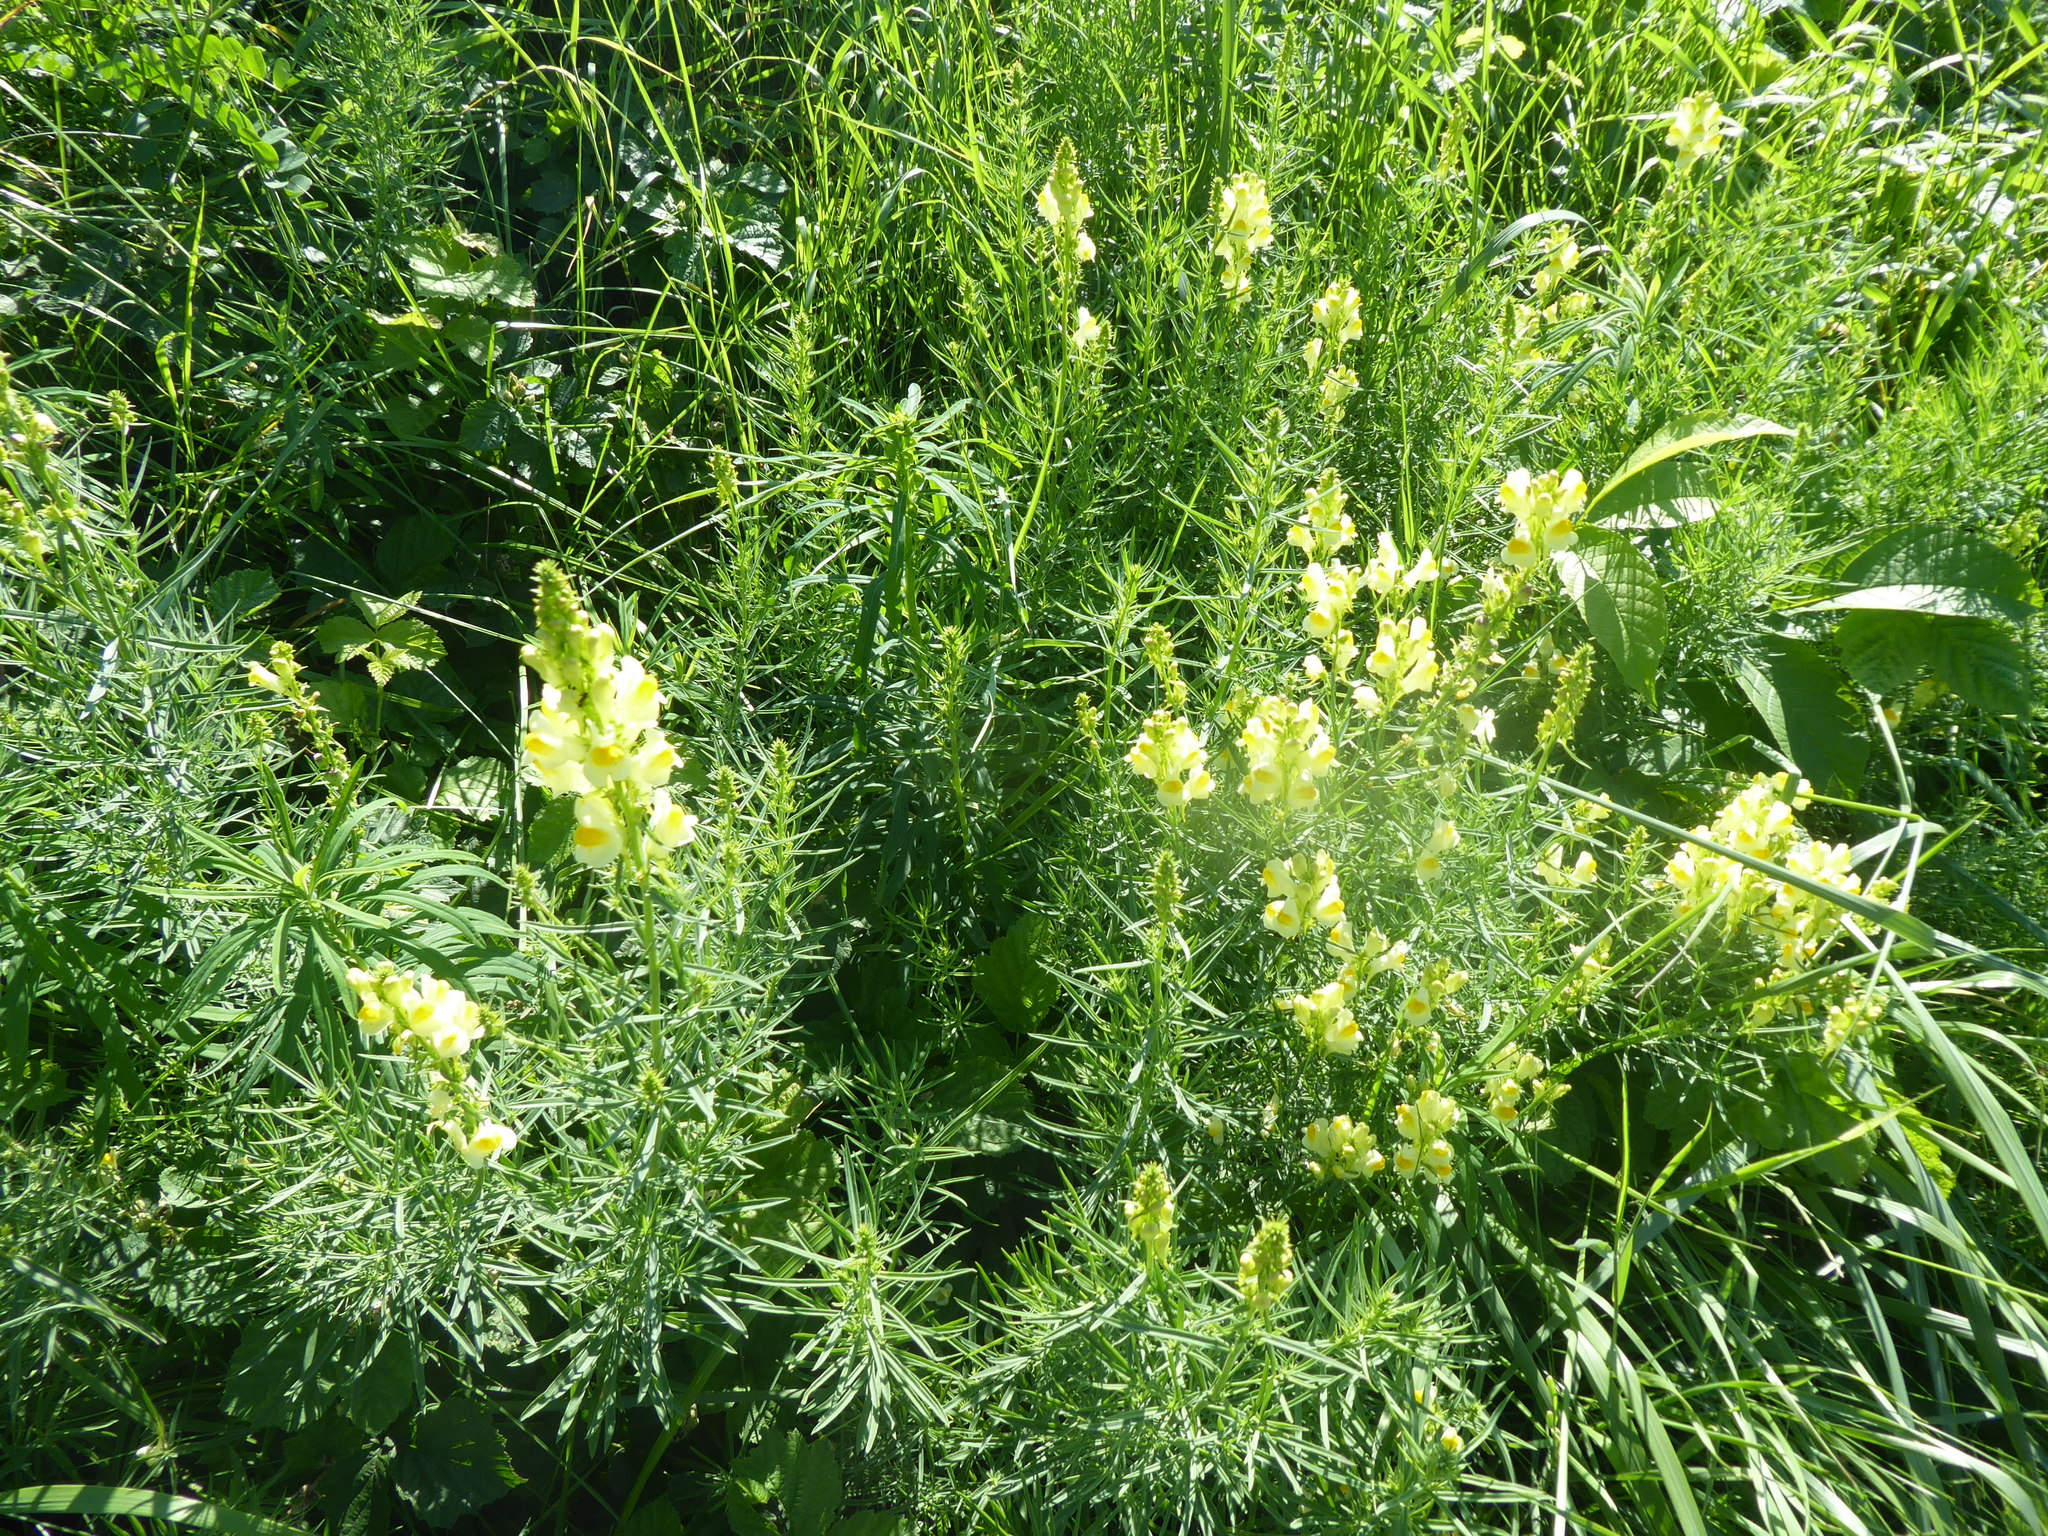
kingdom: Plantae
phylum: Tracheophyta
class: Magnoliopsida
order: Lamiales
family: Plantaginaceae
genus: Linaria
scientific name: Linaria vulgaris
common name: Butter and eggs
